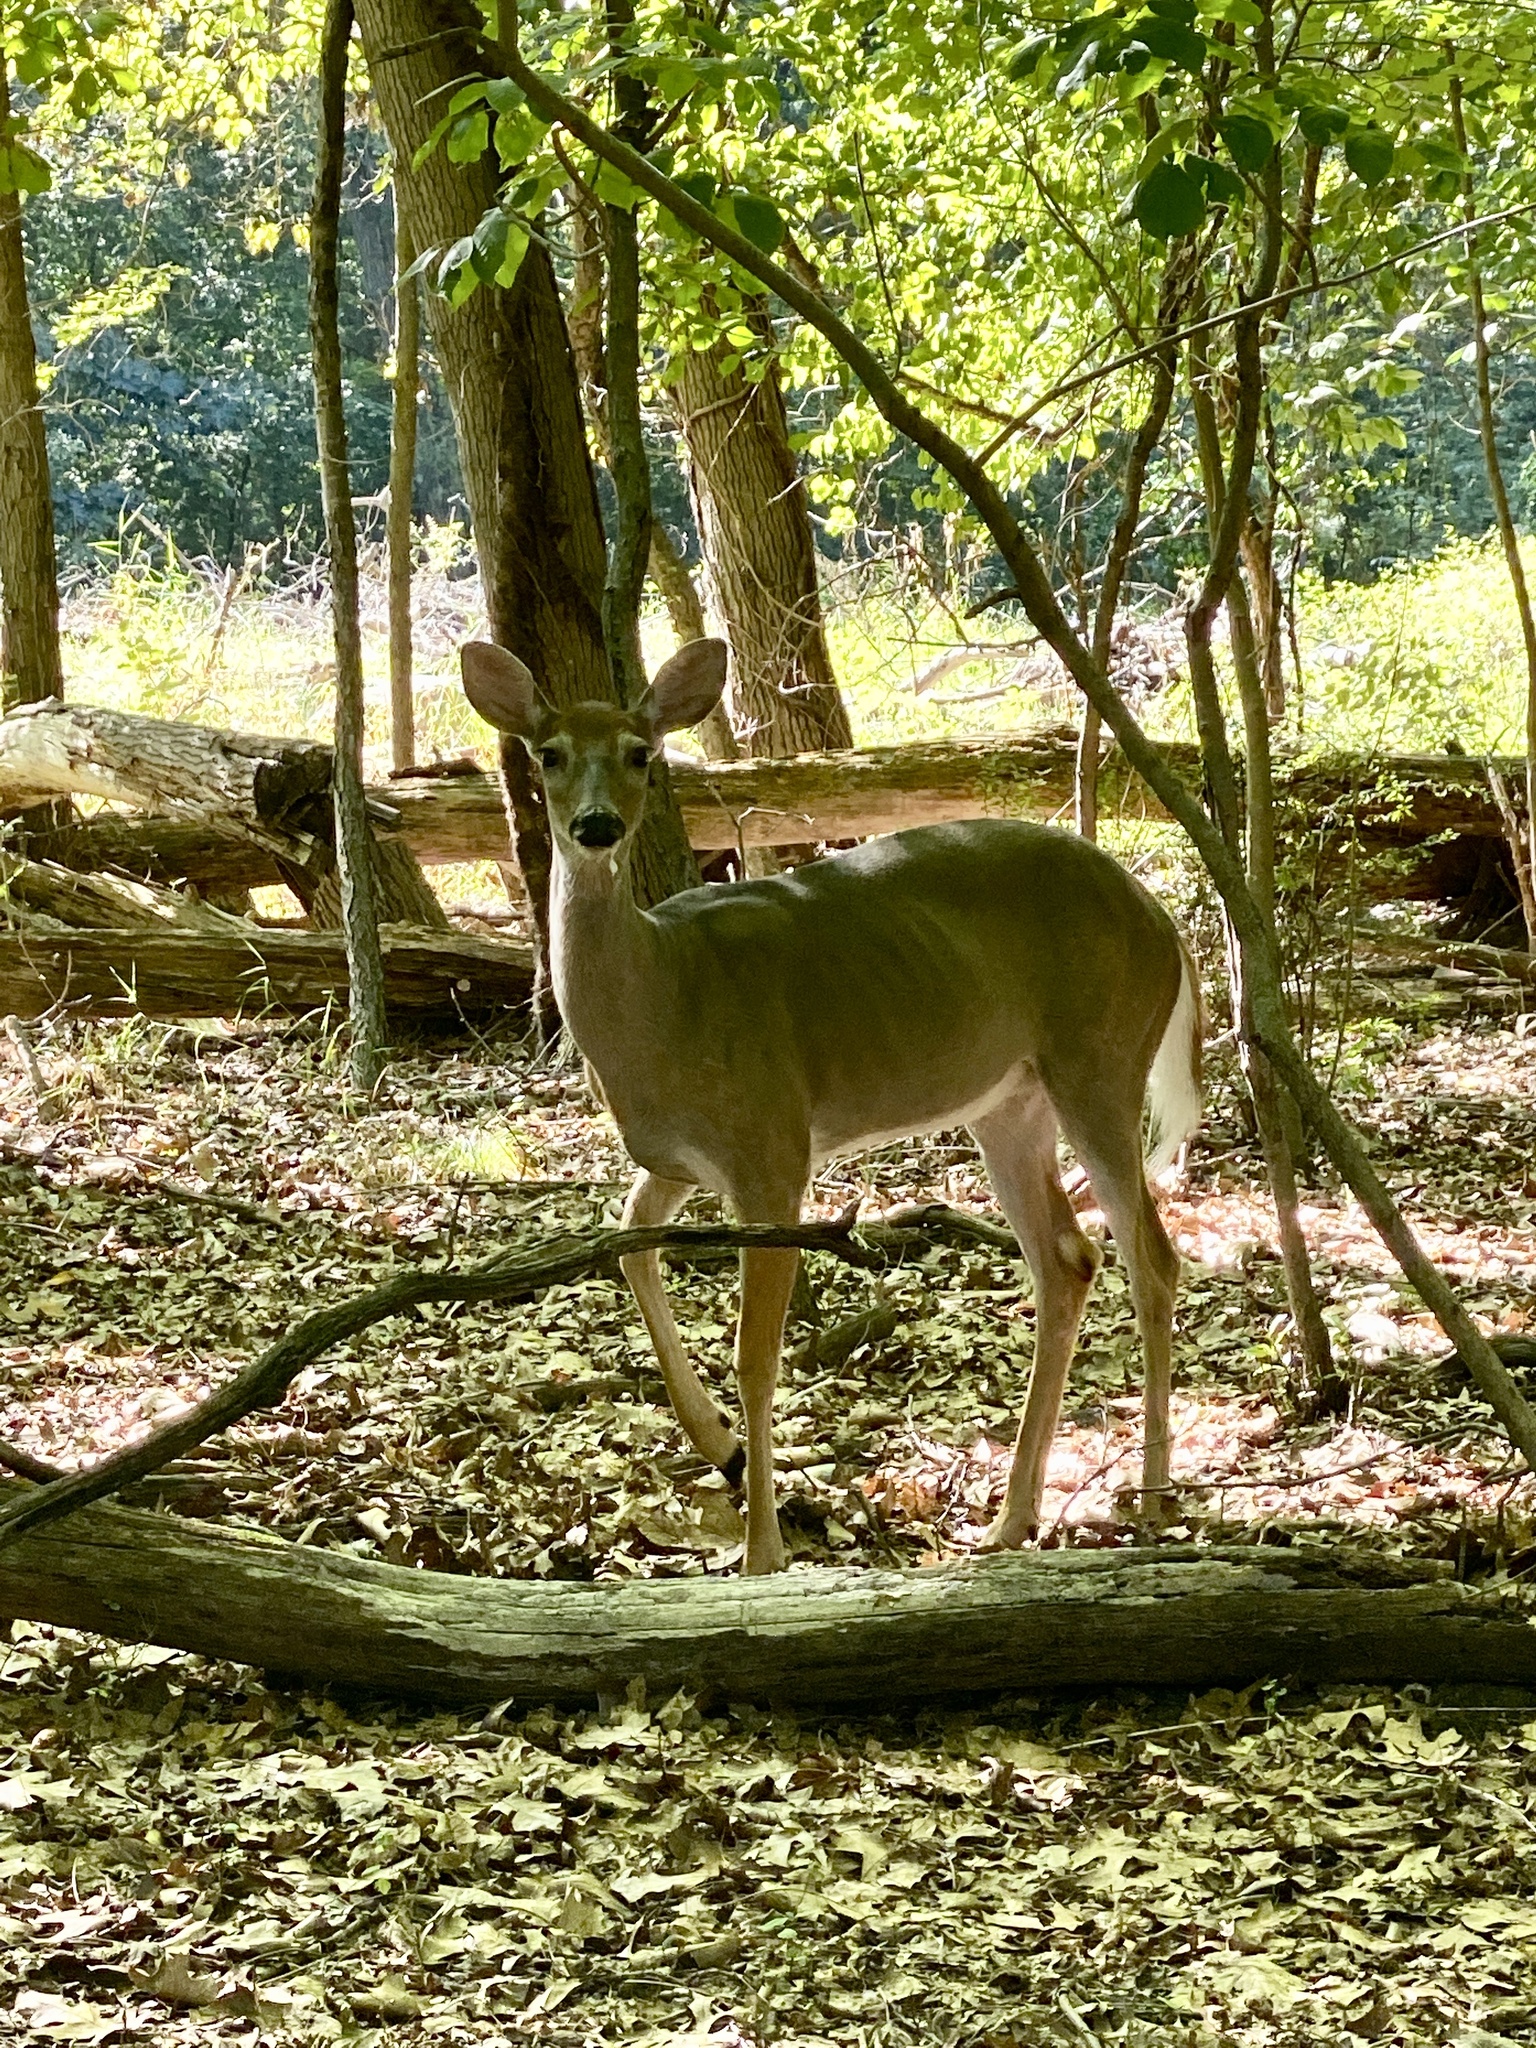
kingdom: Animalia
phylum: Chordata
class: Mammalia
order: Artiodactyla
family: Cervidae
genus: Odocoileus
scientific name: Odocoileus virginianus
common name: White-tailed deer
